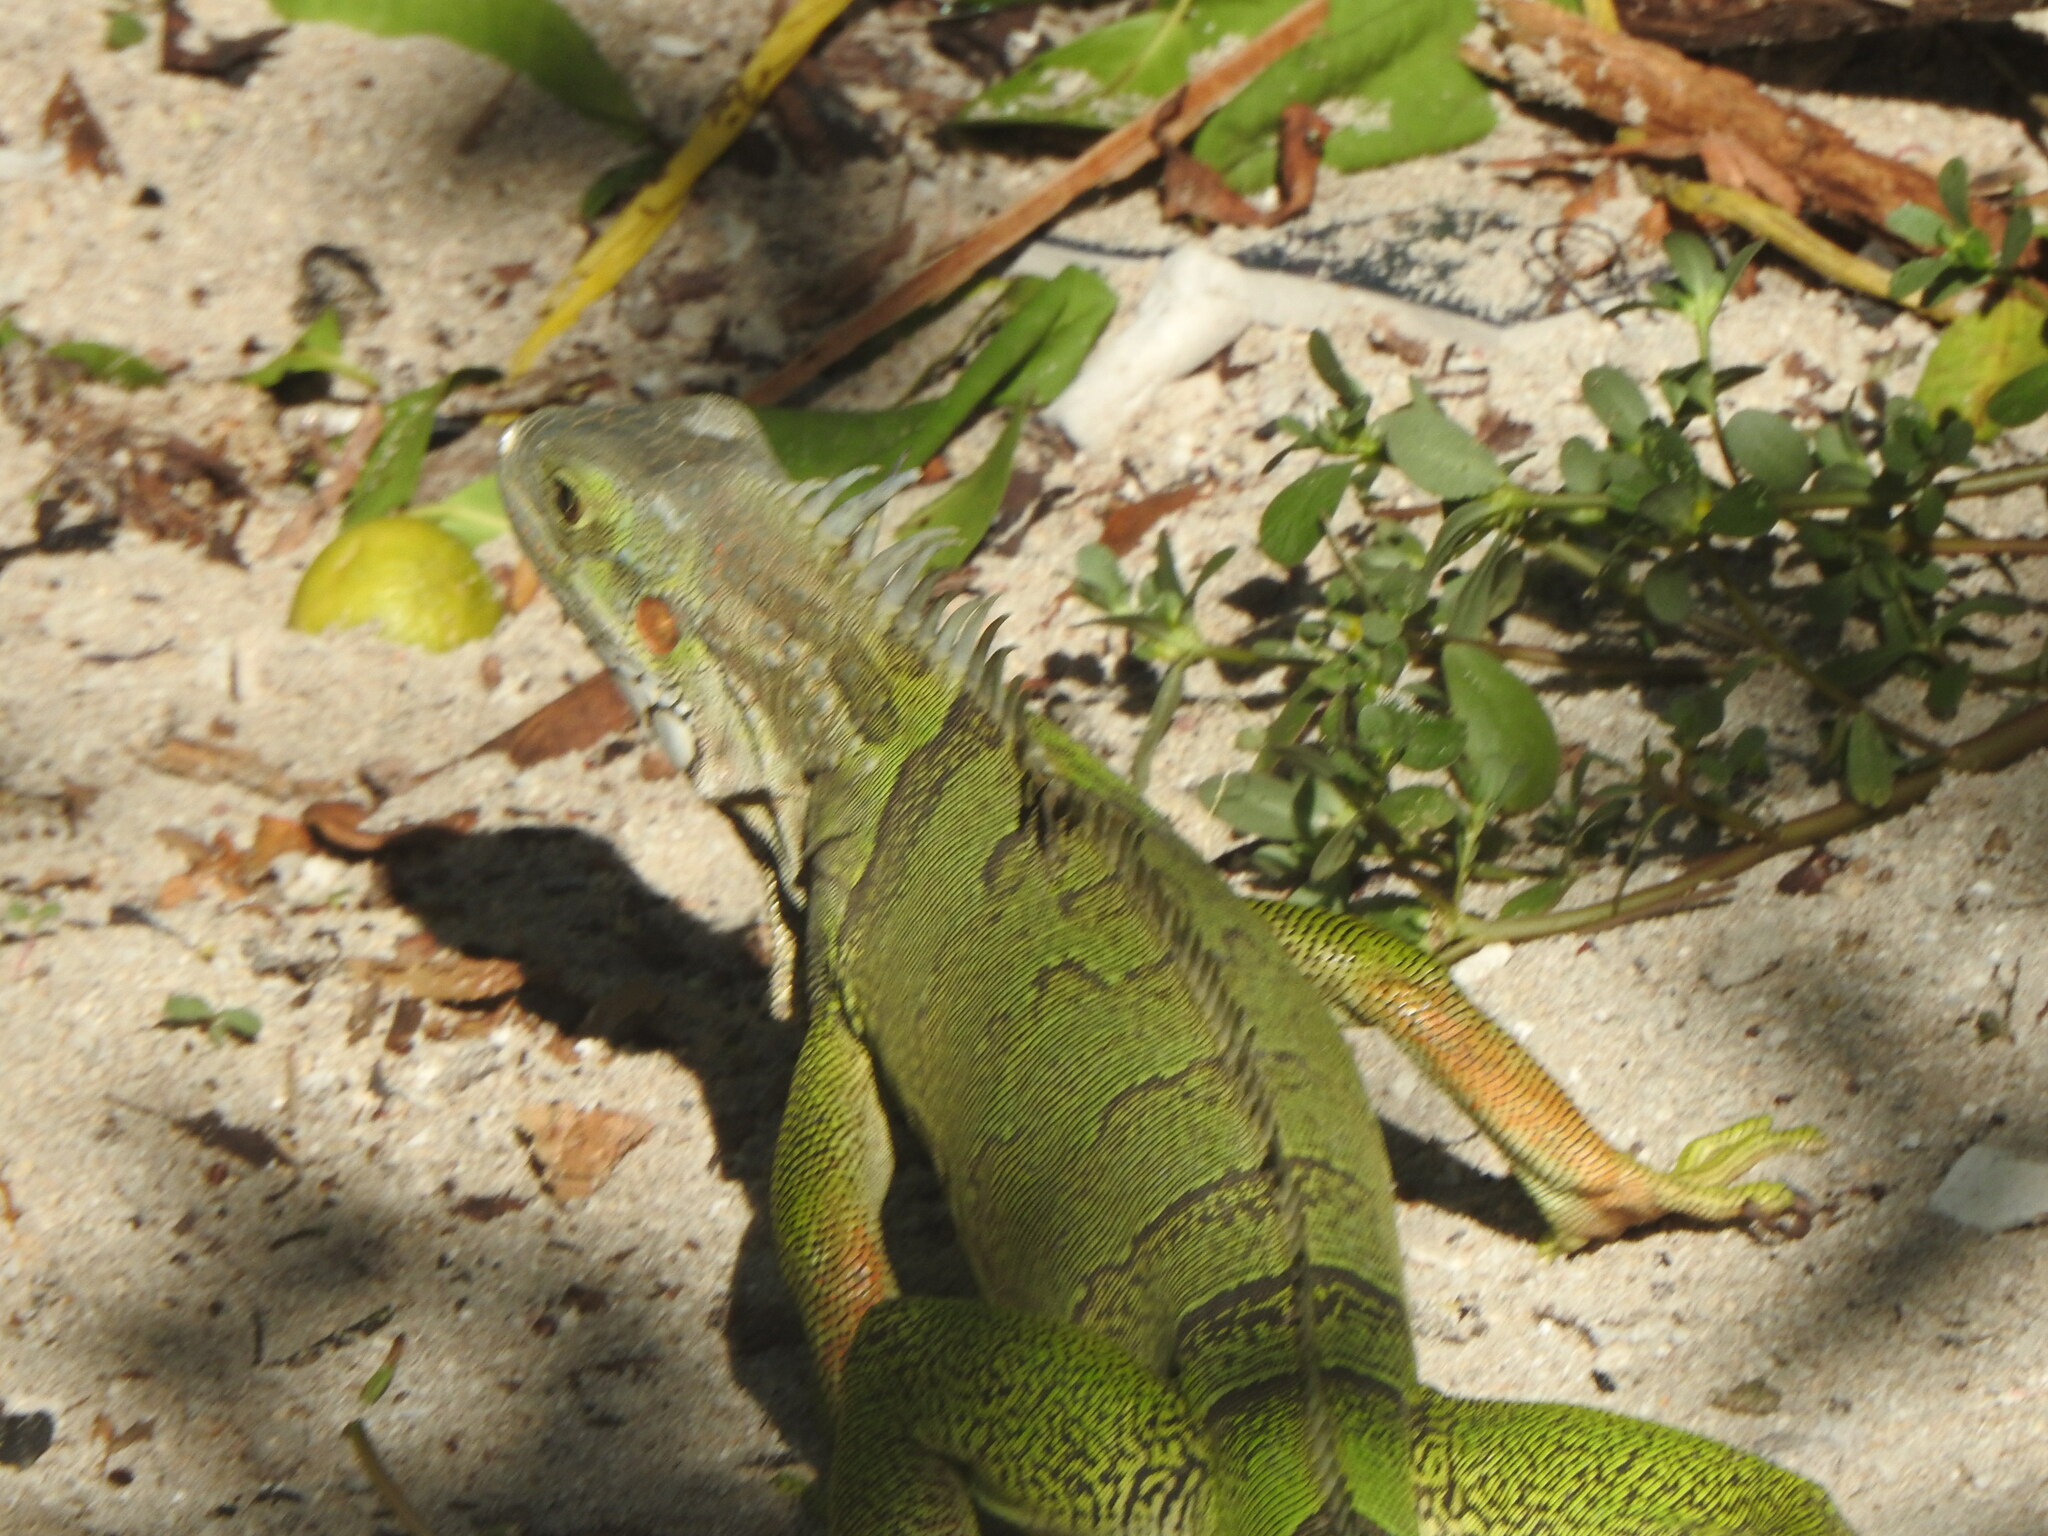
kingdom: Animalia
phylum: Chordata
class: Squamata
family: Iguanidae
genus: Iguana
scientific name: Iguana iguana
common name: Green iguana
